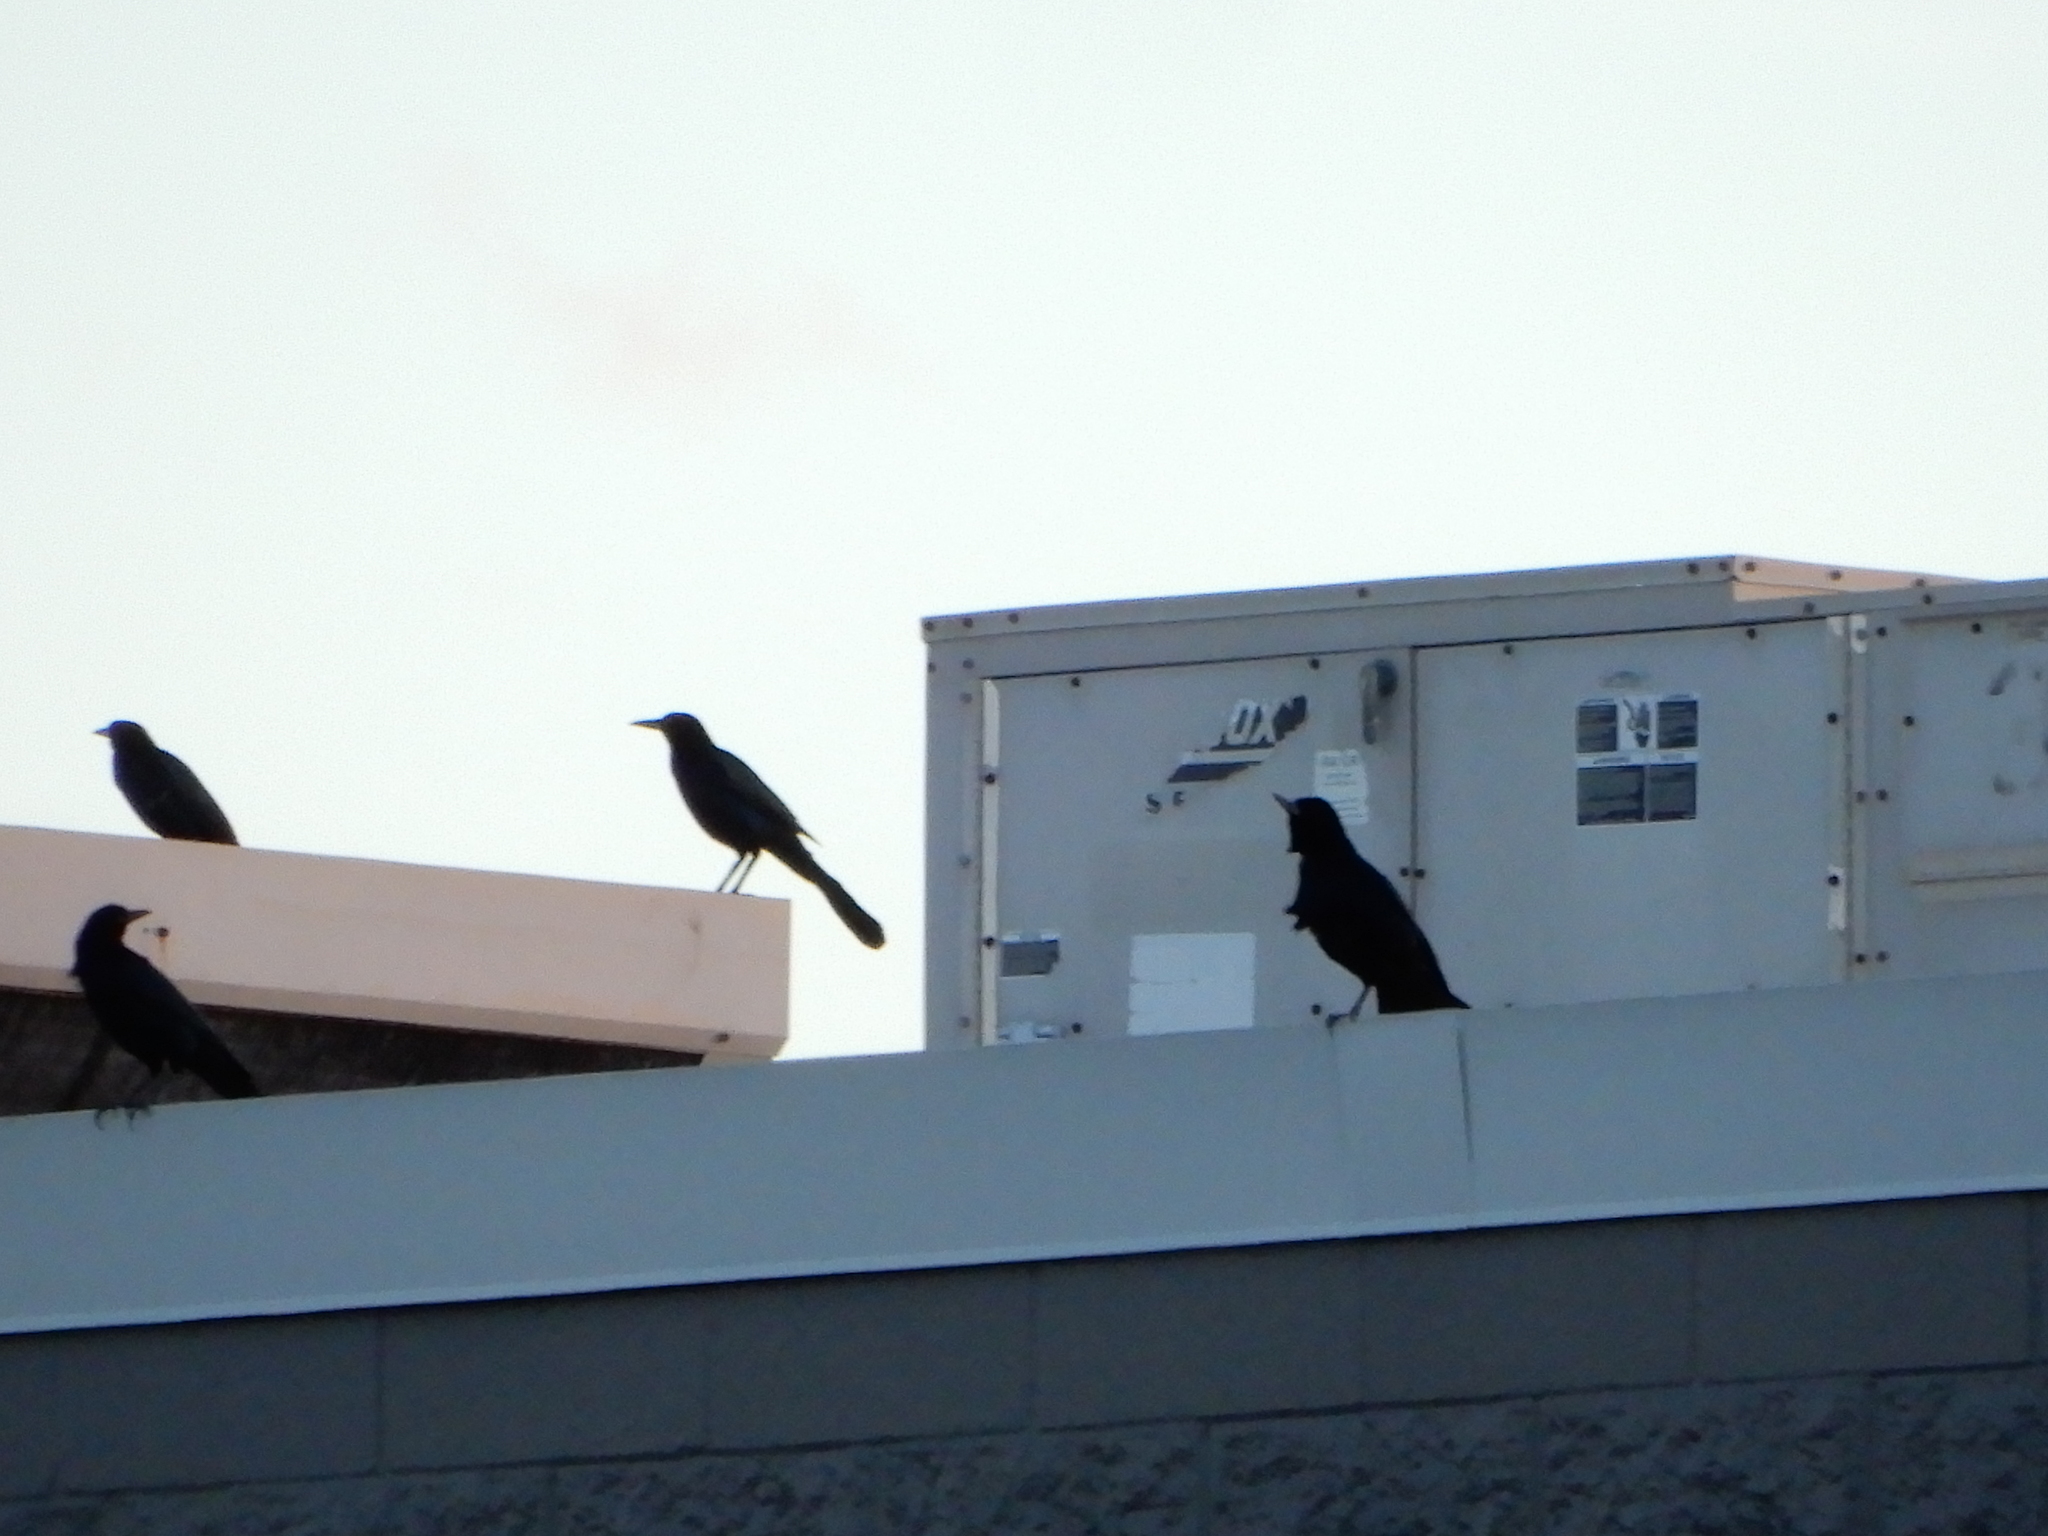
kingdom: Animalia
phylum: Chordata
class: Aves
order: Passeriformes
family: Icteridae
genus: Quiscalus
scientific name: Quiscalus major
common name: Boat-tailed grackle
